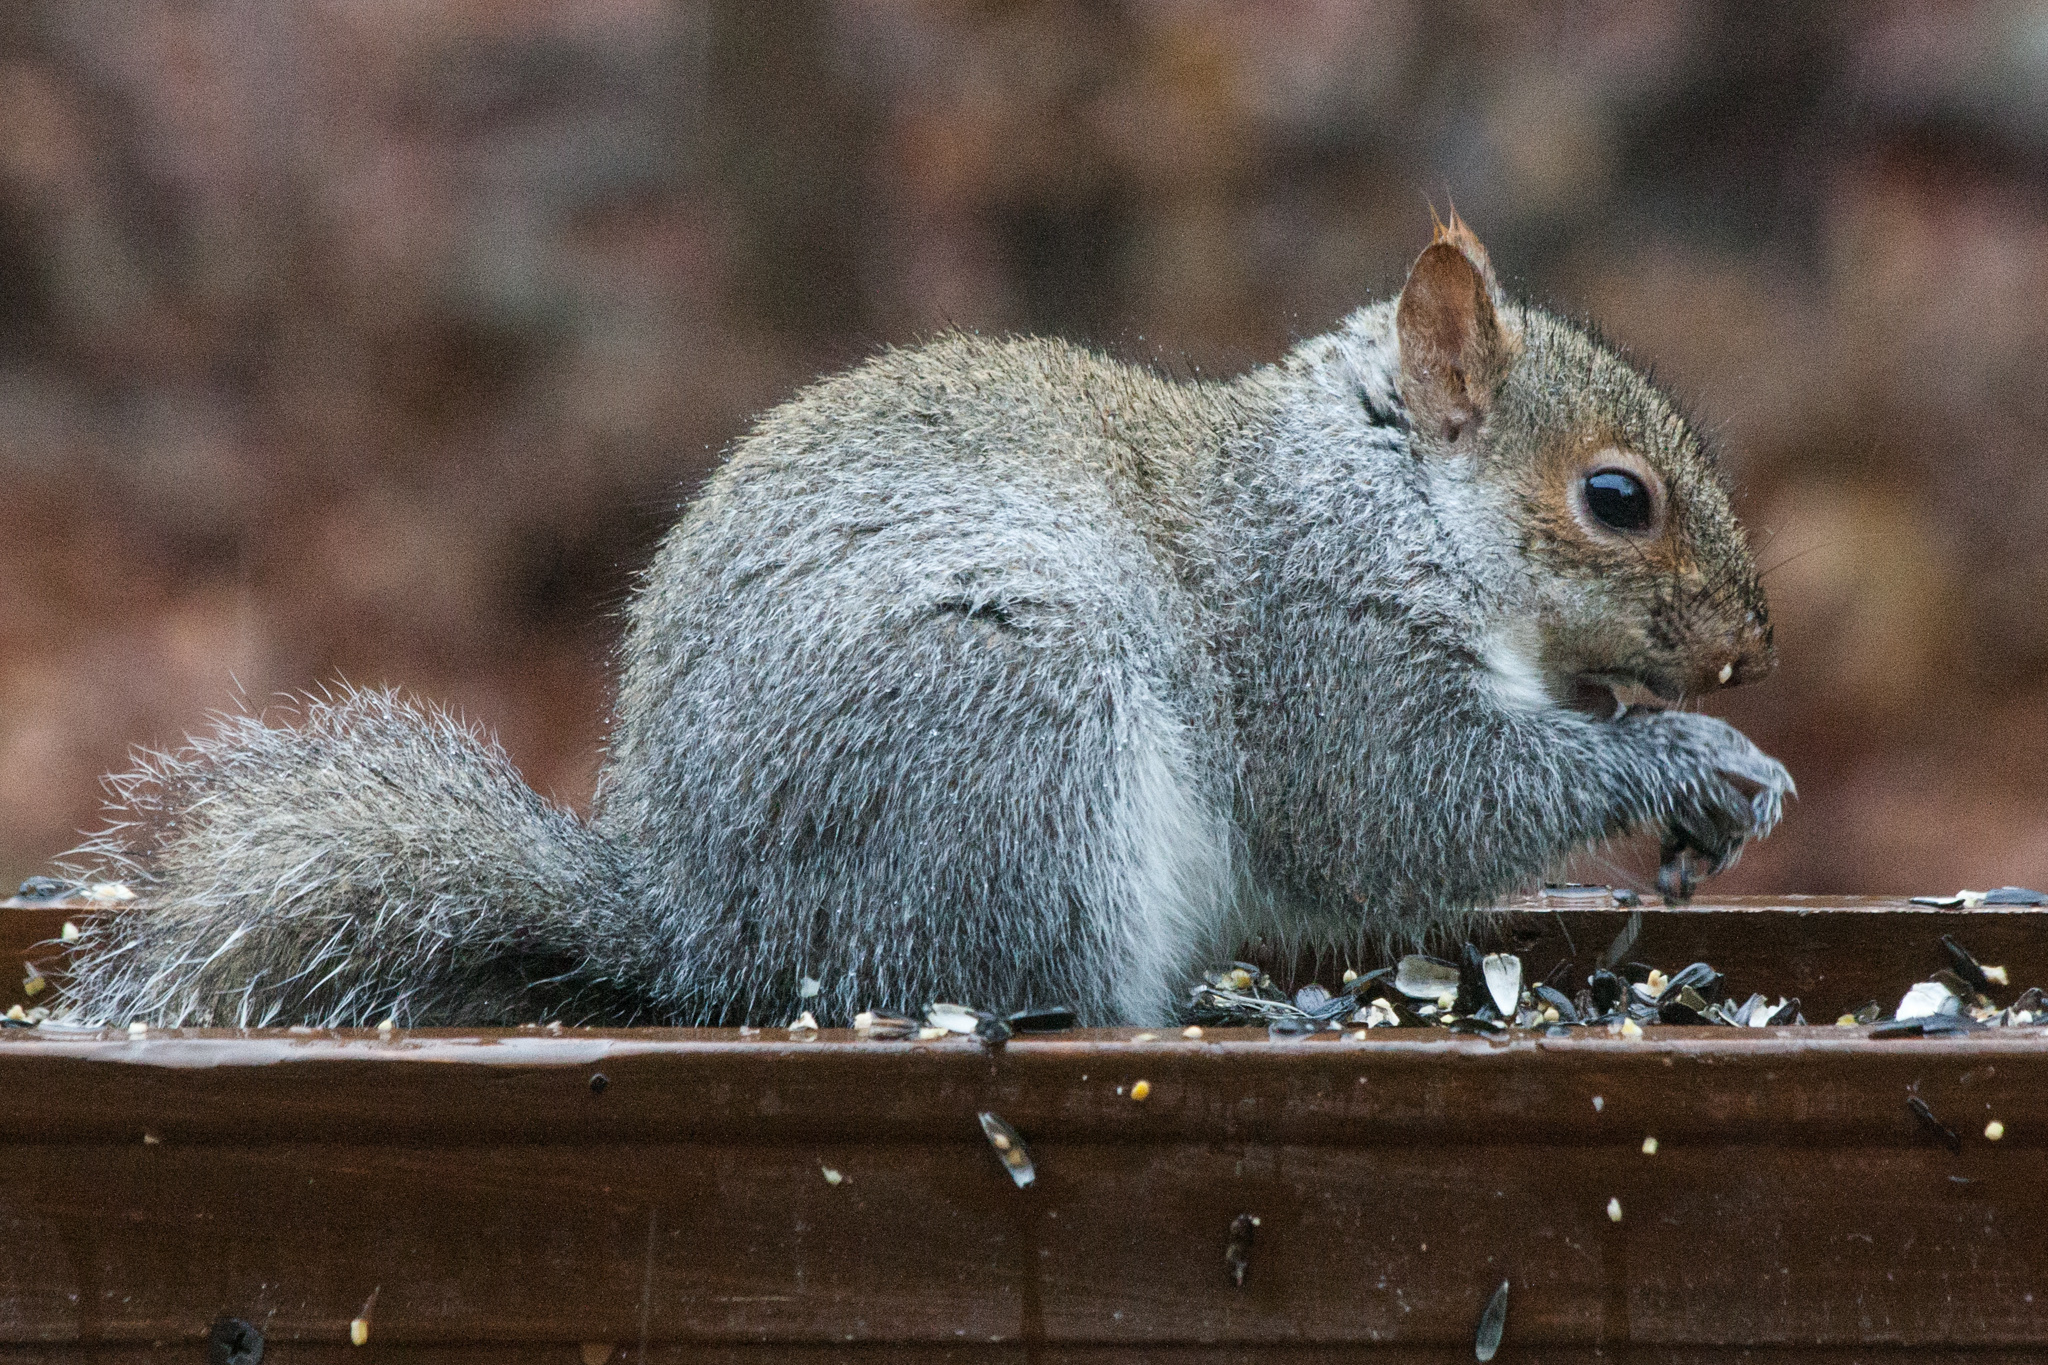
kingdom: Animalia
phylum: Chordata
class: Mammalia
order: Rodentia
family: Sciuridae
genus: Sciurus
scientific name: Sciurus carolinensis
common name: Eastern gray squirrel
